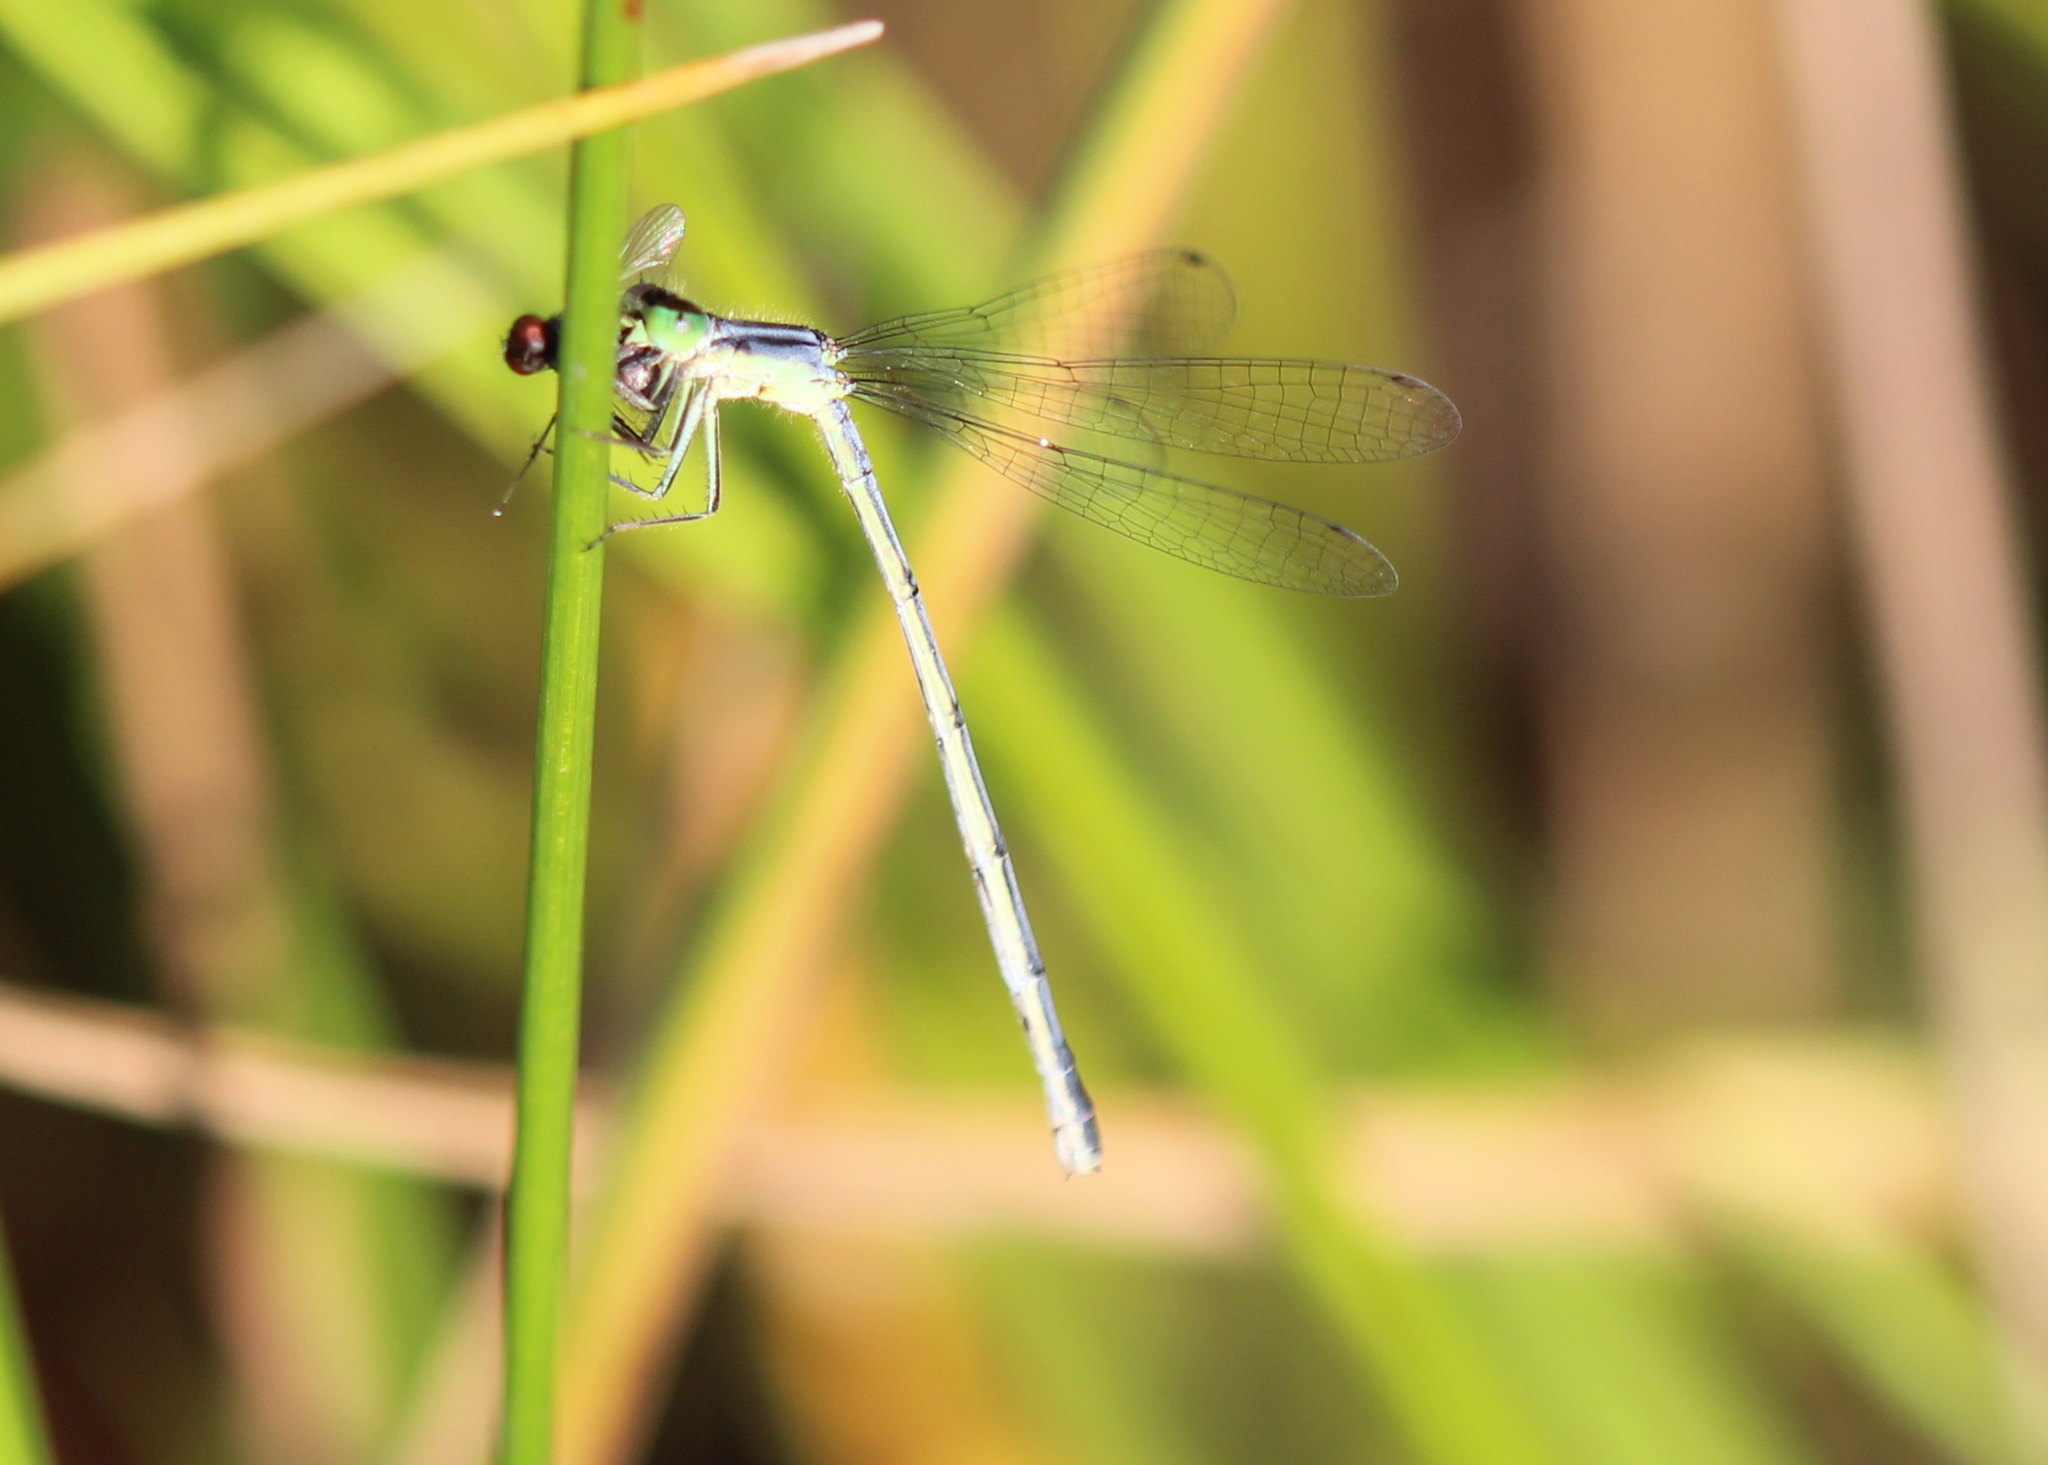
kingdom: Animalia
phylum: Arthropoda
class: Insecta
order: Odonata
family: Coenagrionidae
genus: Ischnura
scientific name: Ischnura verticalis
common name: Eastern forktail
